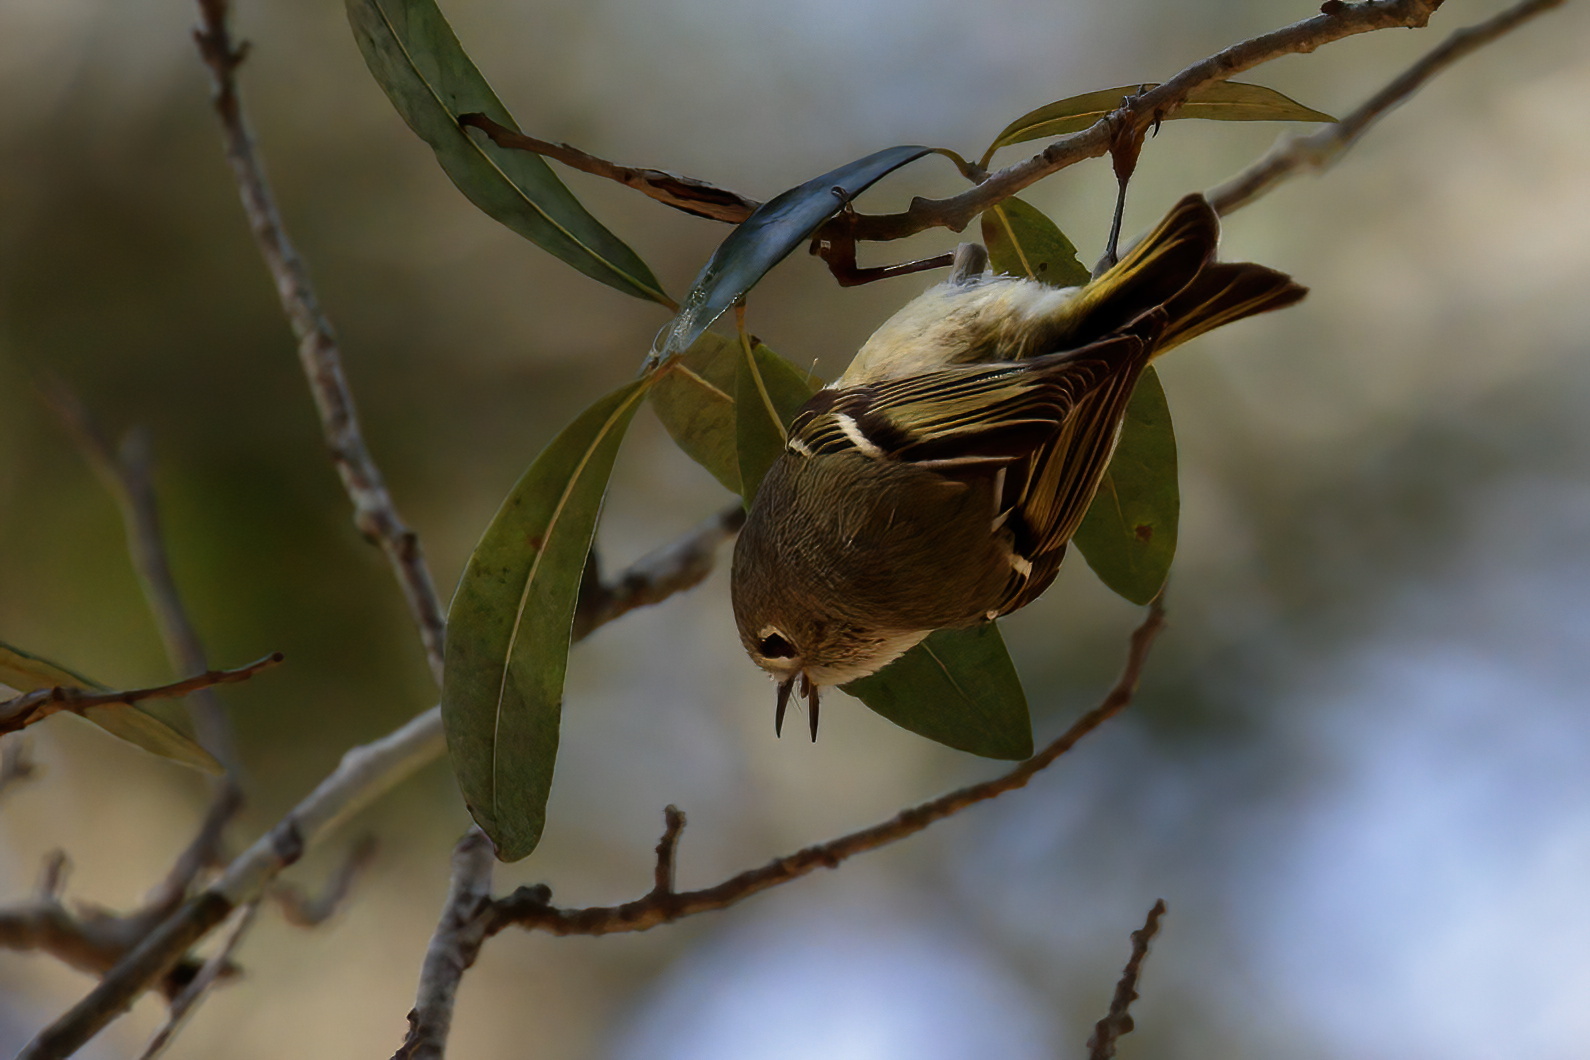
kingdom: Animalia
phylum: Chordata
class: Aves
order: Passeriformes
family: Regulidae
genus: Regulus
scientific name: Regulus calendula
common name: Ruby-crowned kinglet
